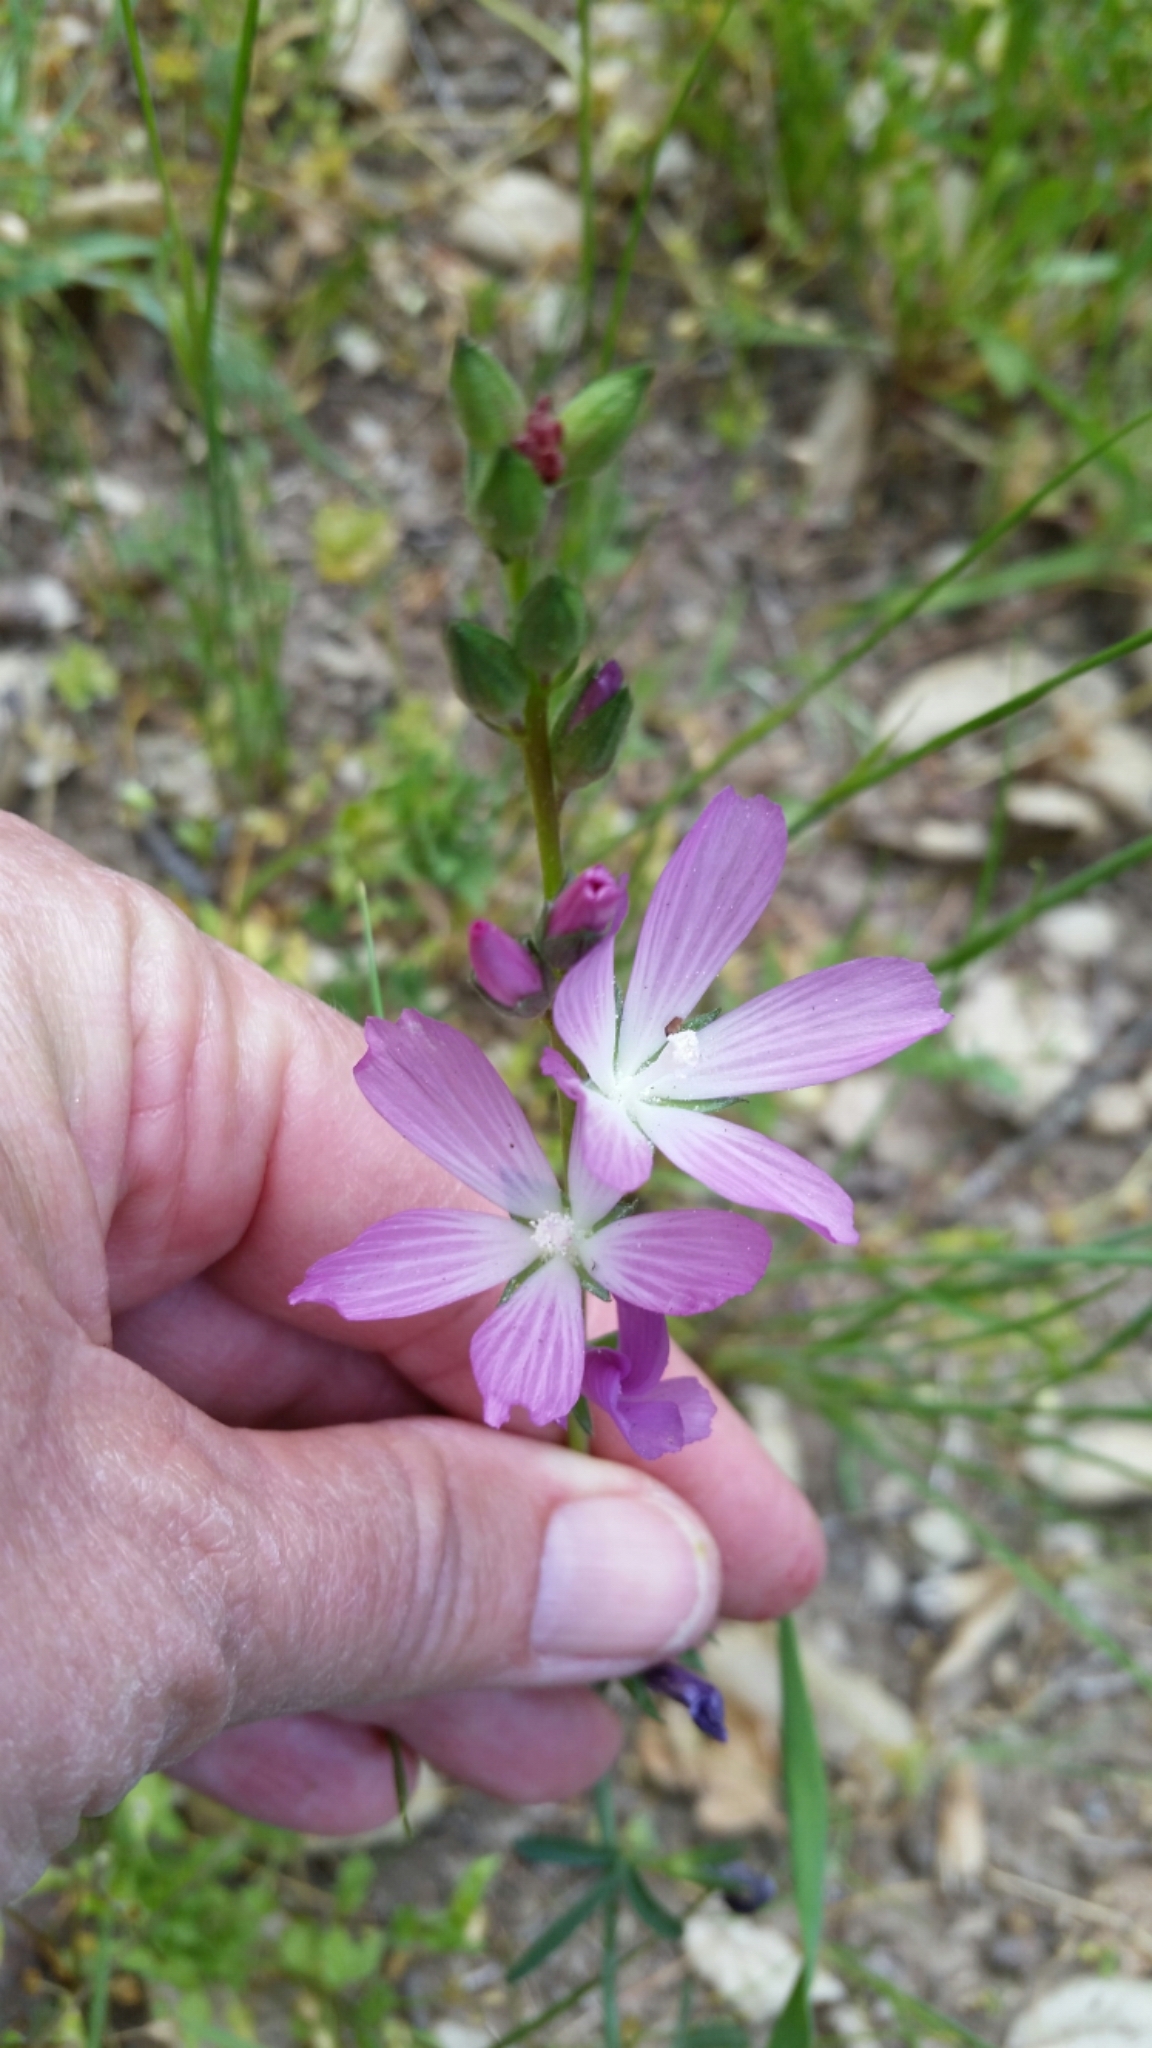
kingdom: Plantae
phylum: Tracheophyta
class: Magnoliopsida
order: Malvales
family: Malvaceae
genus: Sidalcea
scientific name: Sidalcea sparsifolia
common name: Southern checkerbloom
